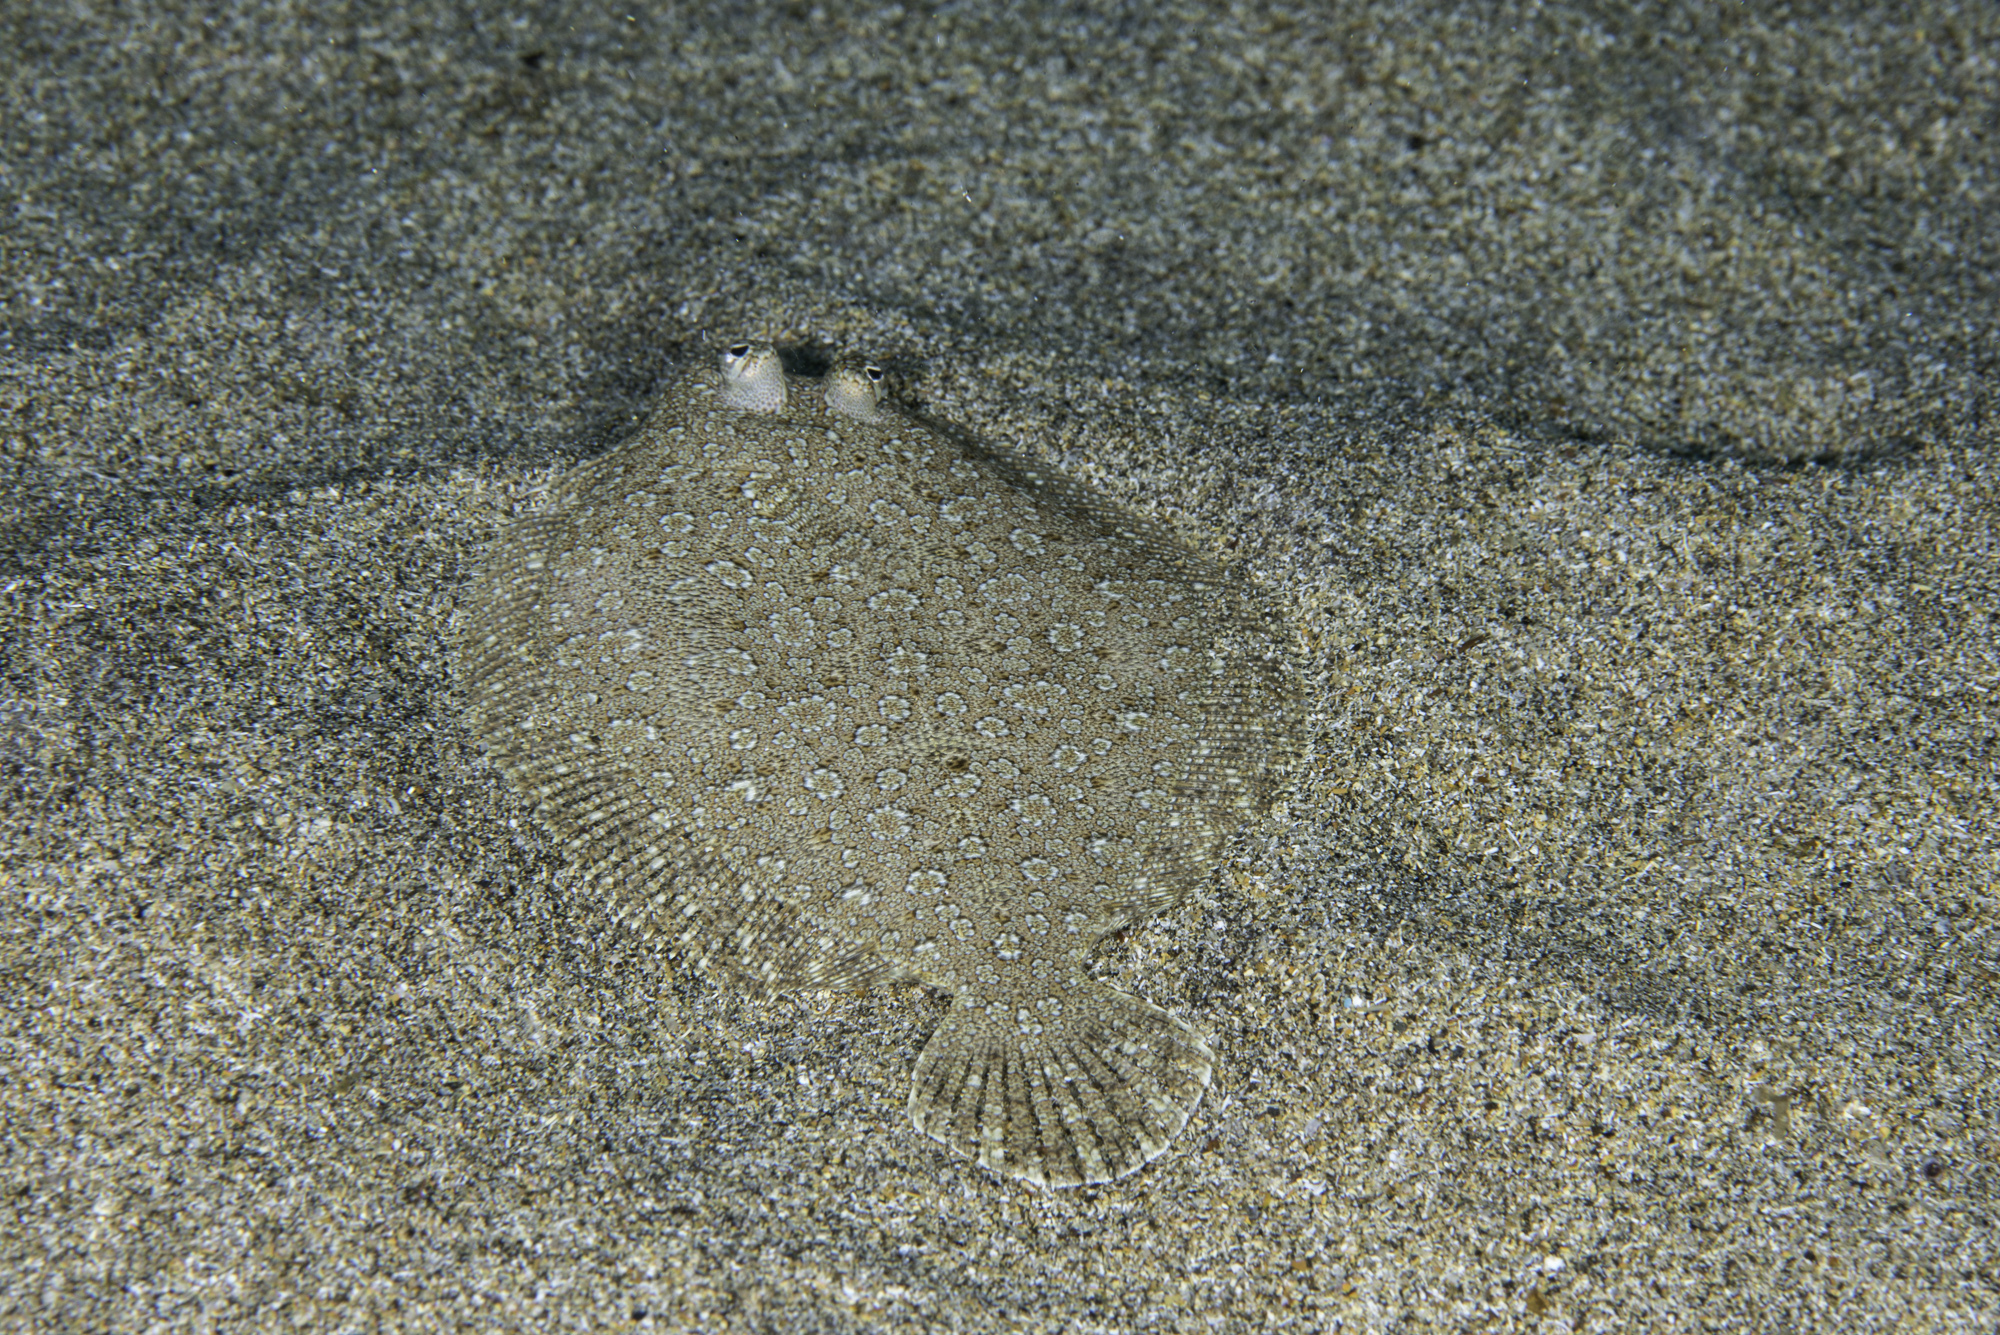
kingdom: Animalia
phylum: Chordata
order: Pleuronectiformes
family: Bothidae
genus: Bothus
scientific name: Bothus podas
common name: Wide-eyed flounder
